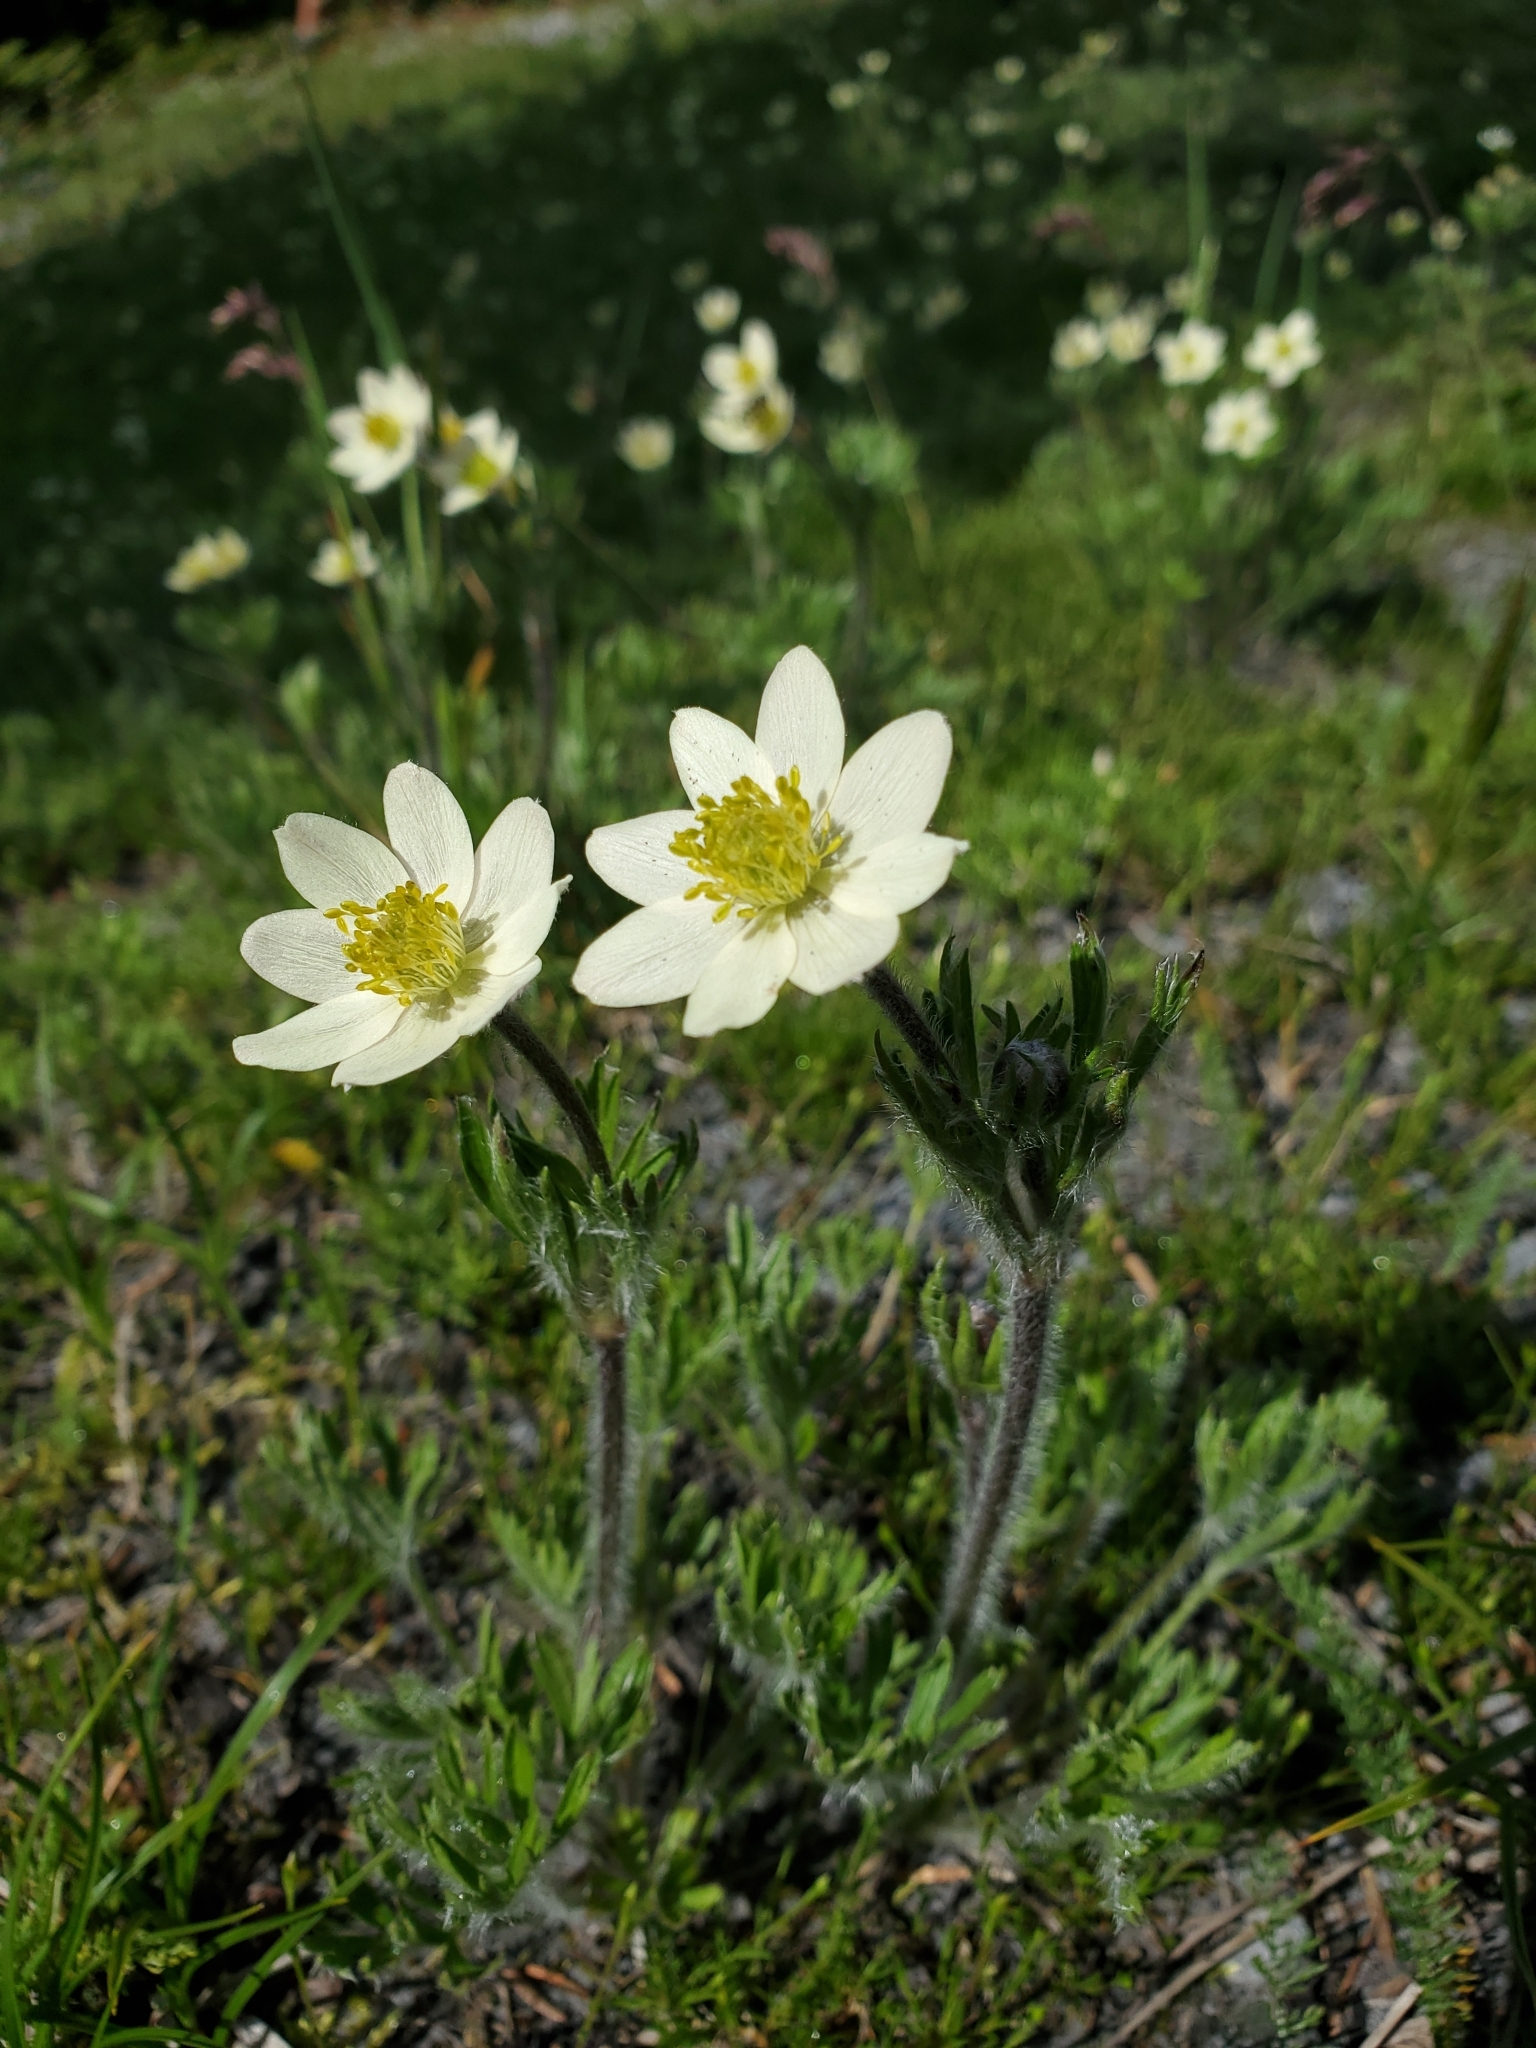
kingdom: Plantae
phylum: Tracheophyta
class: Magnoliopsida
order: Ranunculales
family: Ranunculaceae
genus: Pulsatilla
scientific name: Pulsatilla occidentalis
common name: Mountain pasqueflower
